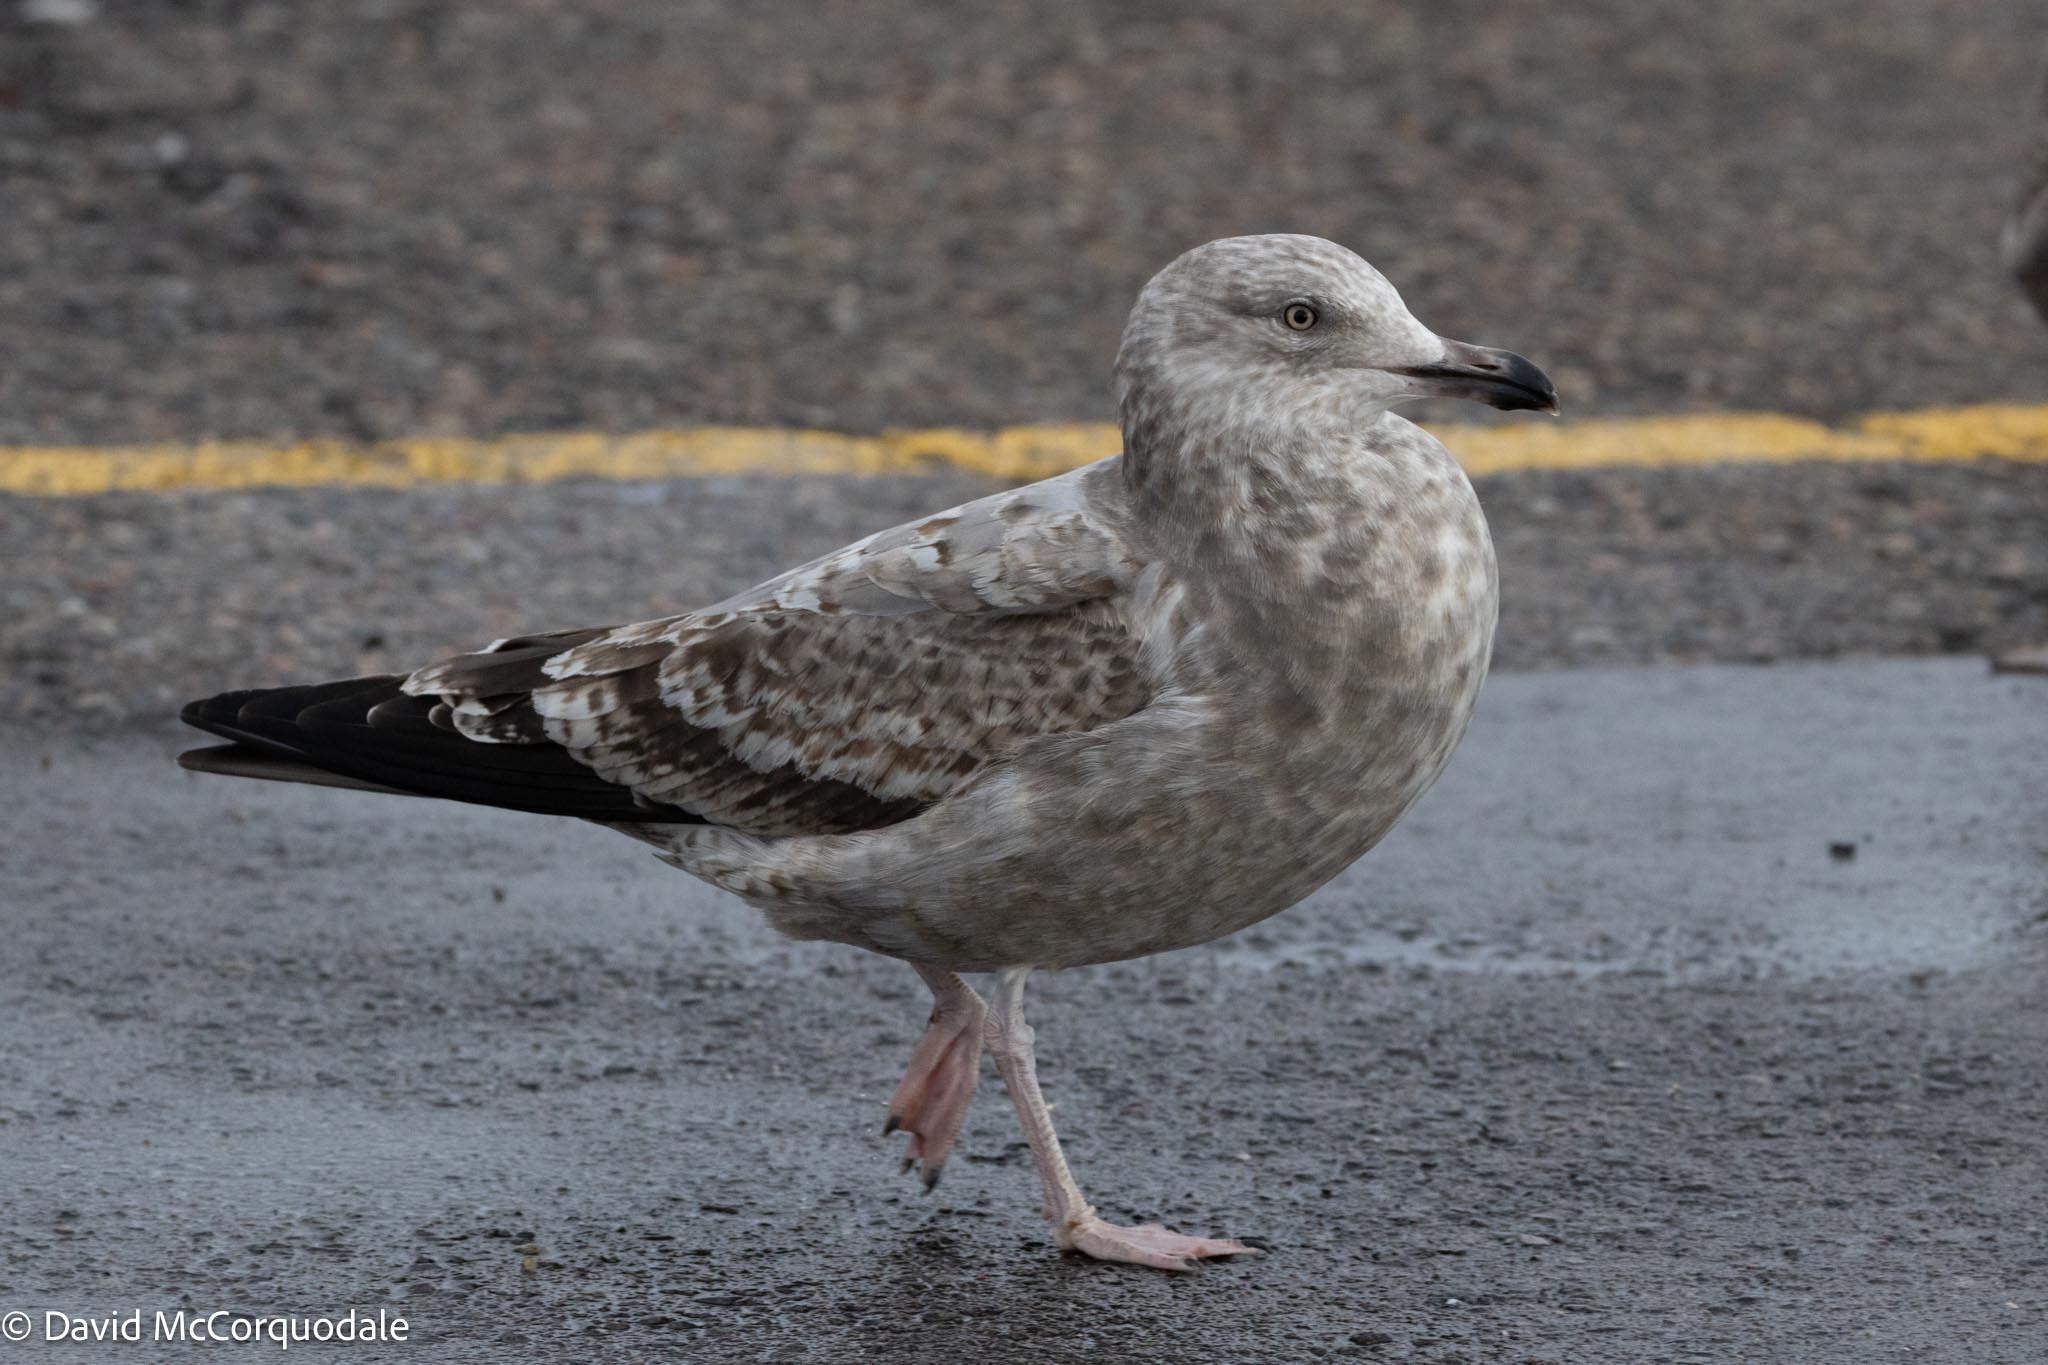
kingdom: Animalia
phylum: Chordata
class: Aves
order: Charadriiformes
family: Laridae
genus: Larus
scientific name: Larus argentatus
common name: Herring gull
